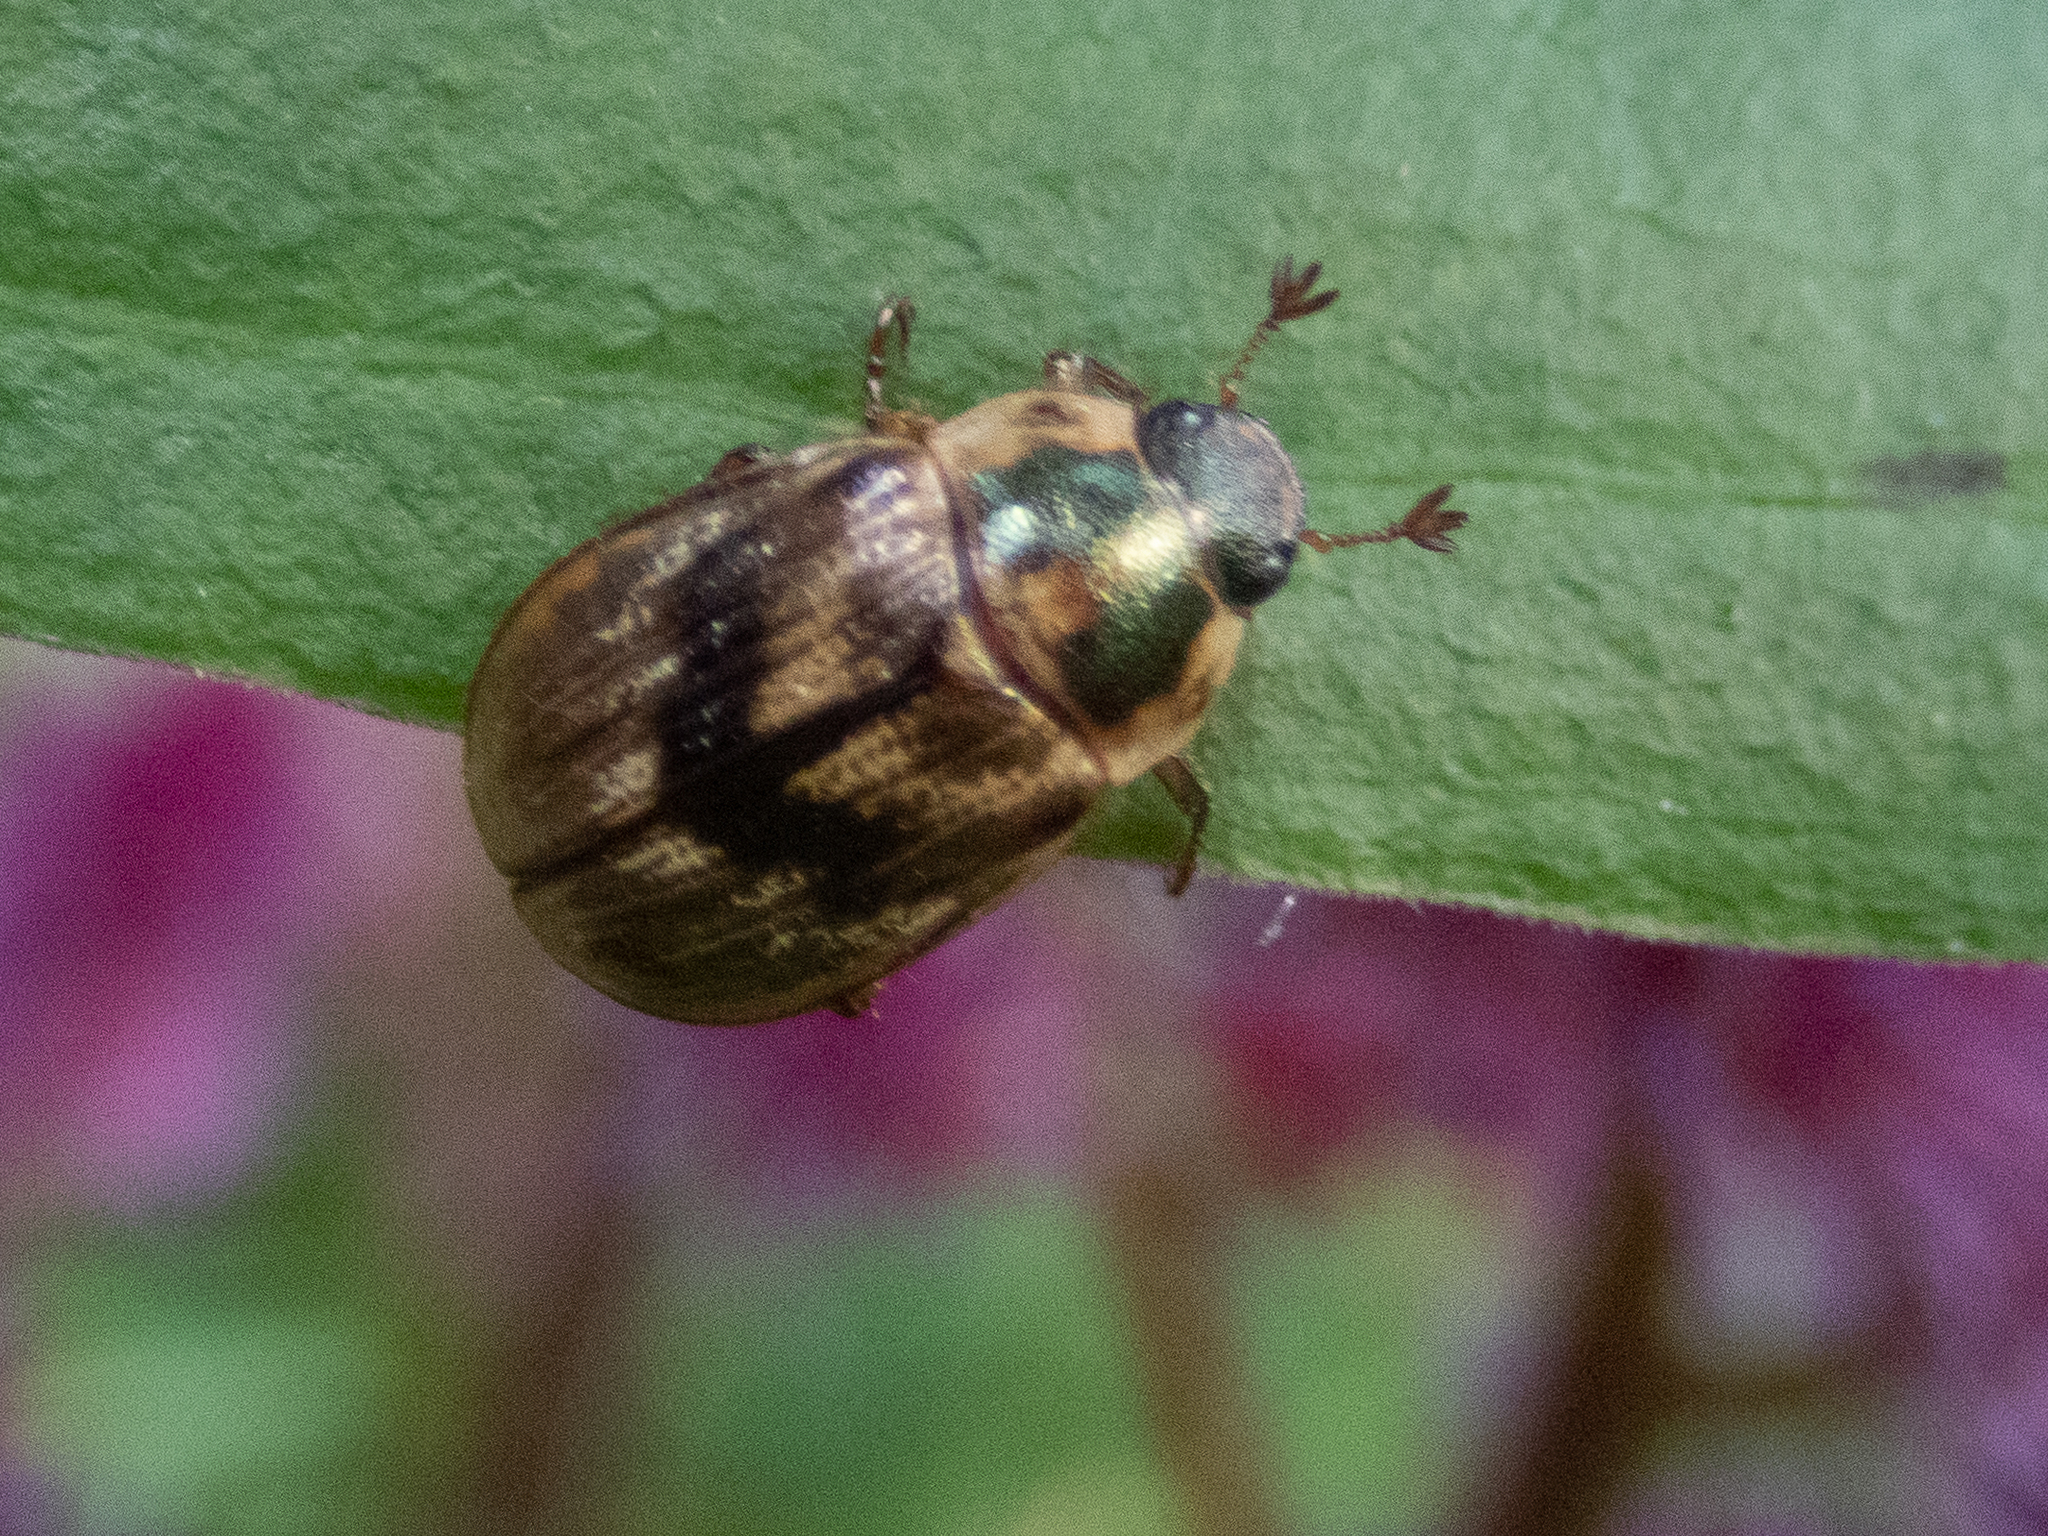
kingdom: Animalia
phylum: Arthropoda
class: Insecta
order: Coleoptera
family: Scarabaeidae
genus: Exomala
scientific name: Exomala orientalis
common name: Oriental beetle
